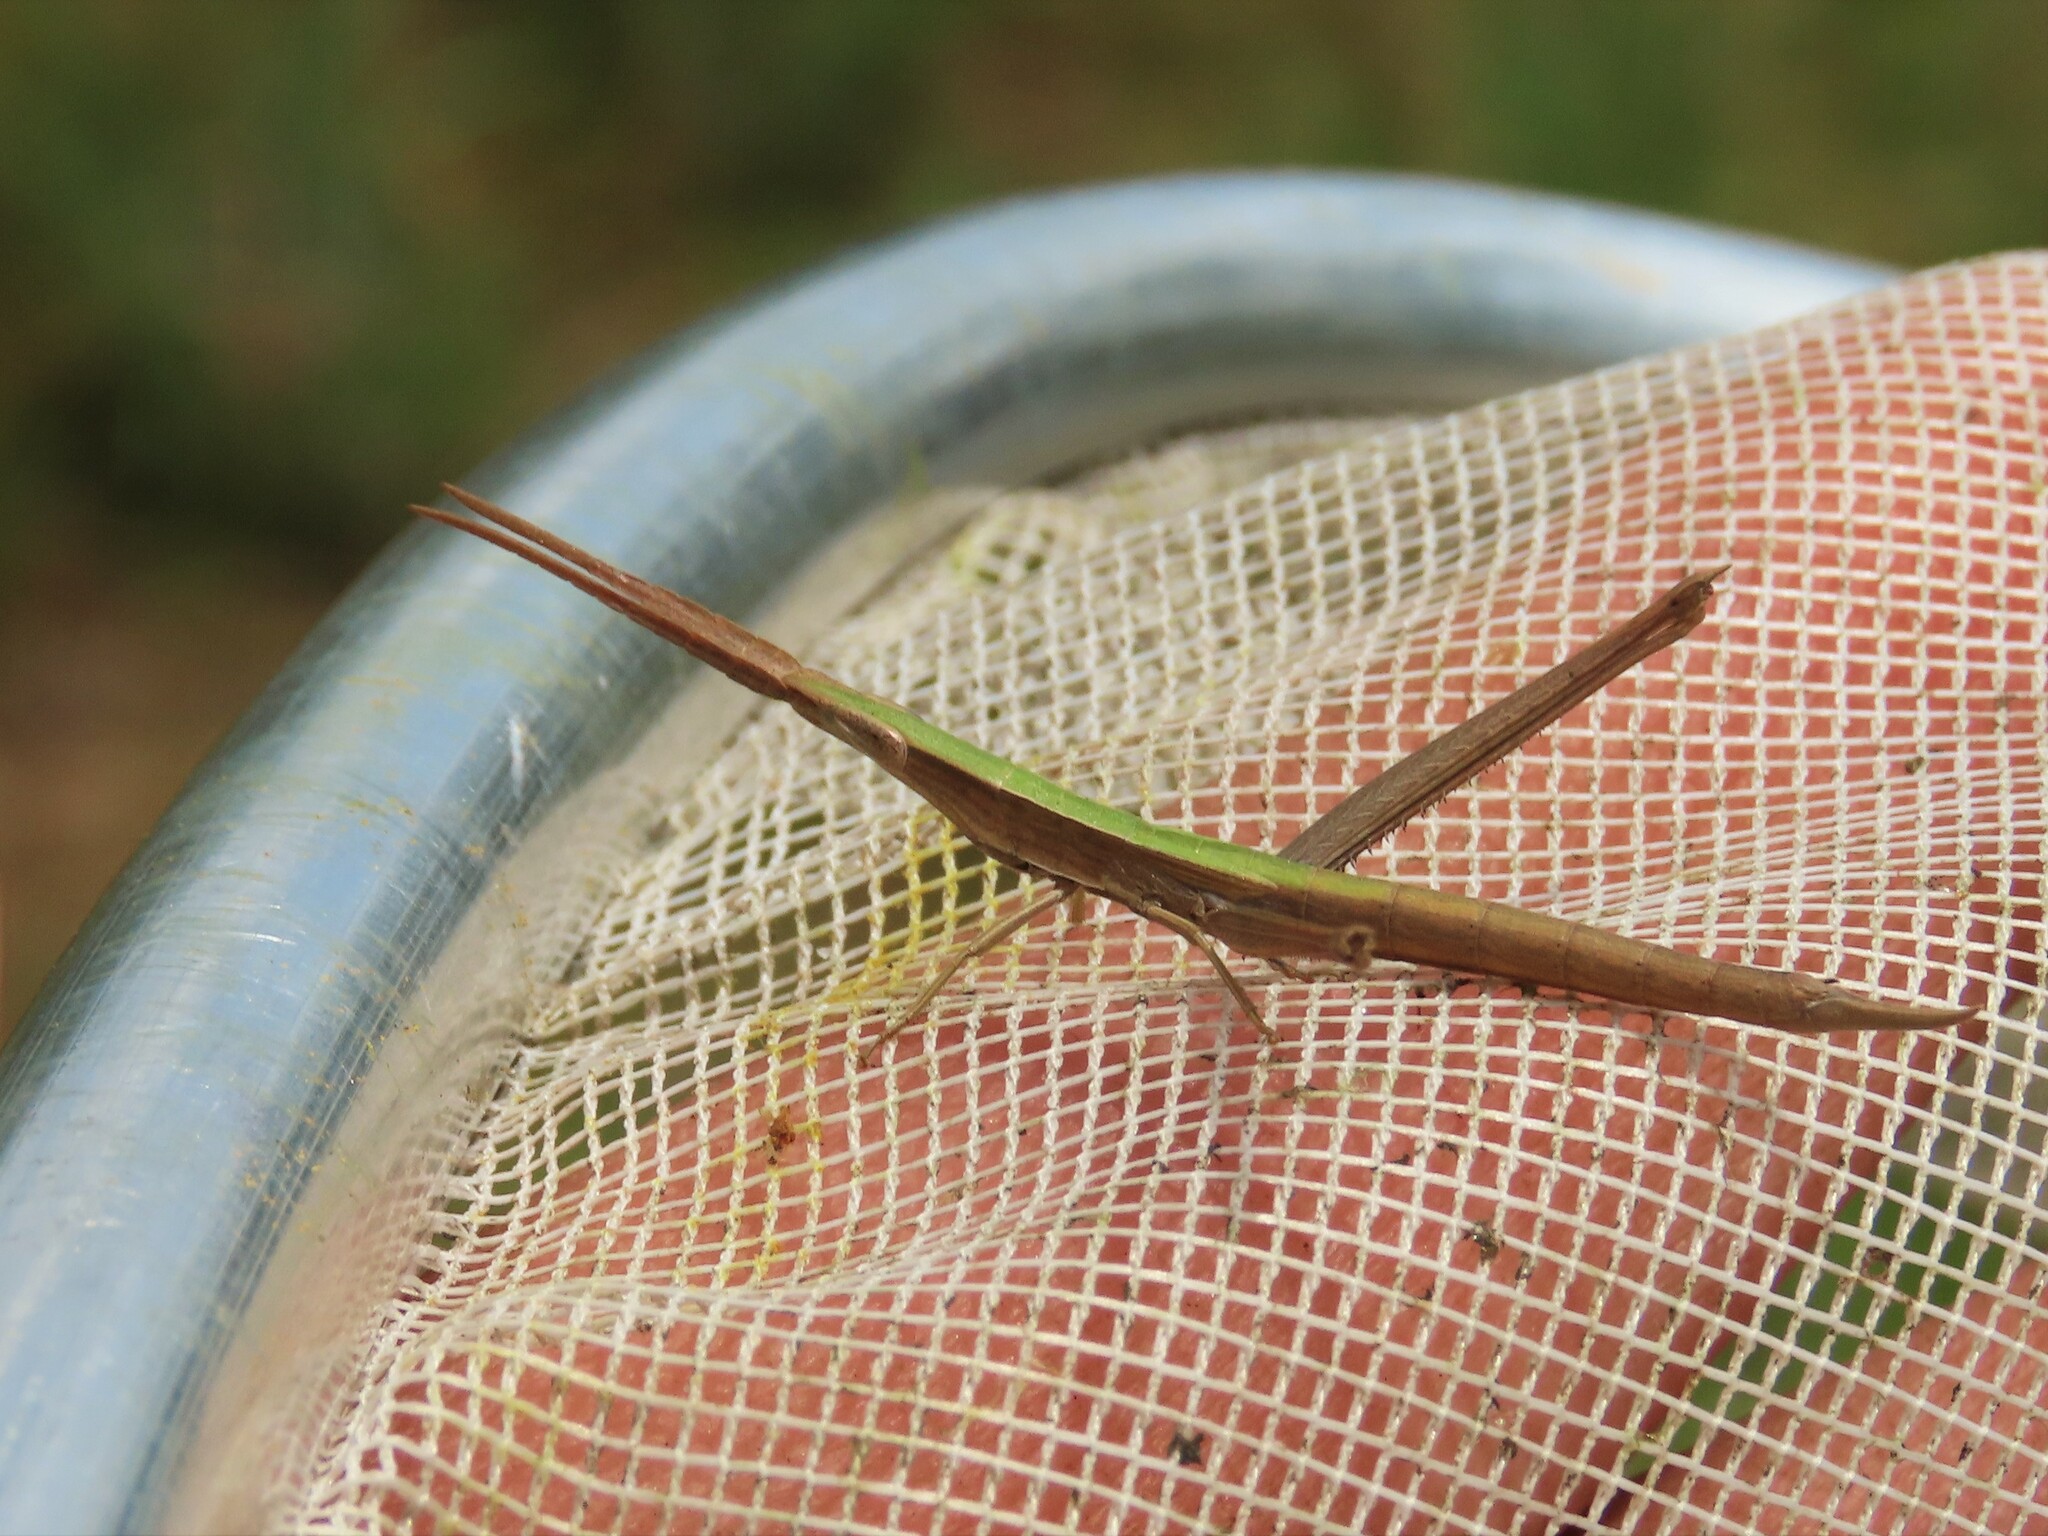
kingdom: Animalia
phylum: Arthropoda
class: Insecta
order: Orthoptera
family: Acrididae
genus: Achurum
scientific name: Achurum carinatum
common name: Long-headed toothpick grasshopper
